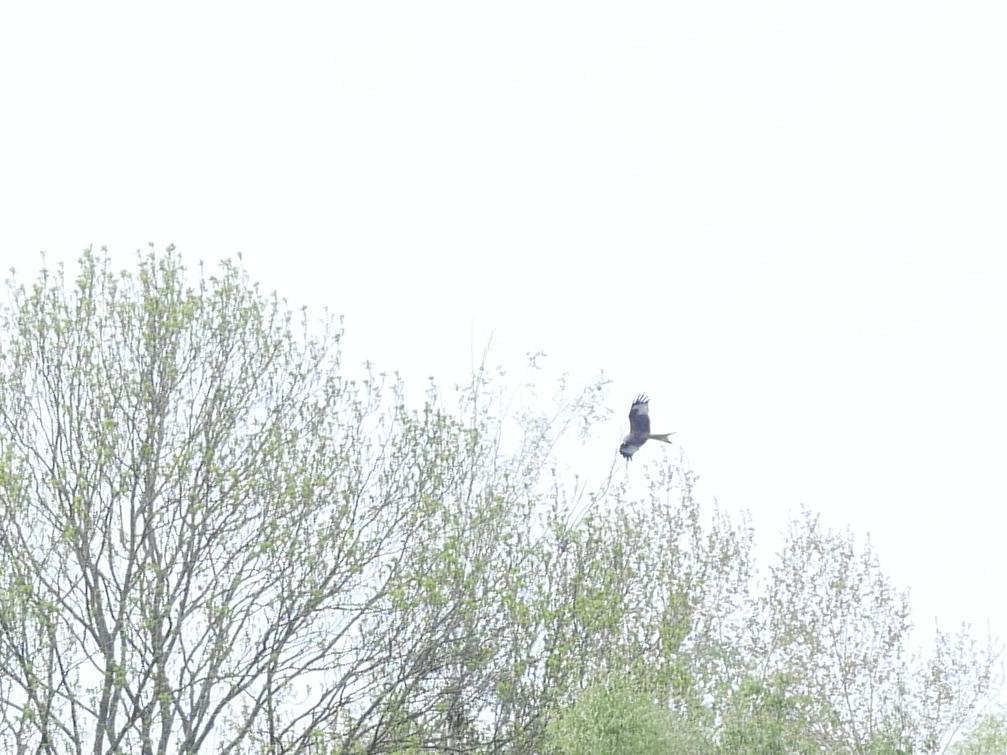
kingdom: Animalia
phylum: Chordata
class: Aves
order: Accipitriformes
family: Accipitridae
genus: Milvus
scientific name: Milvus milvus
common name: Red kite
